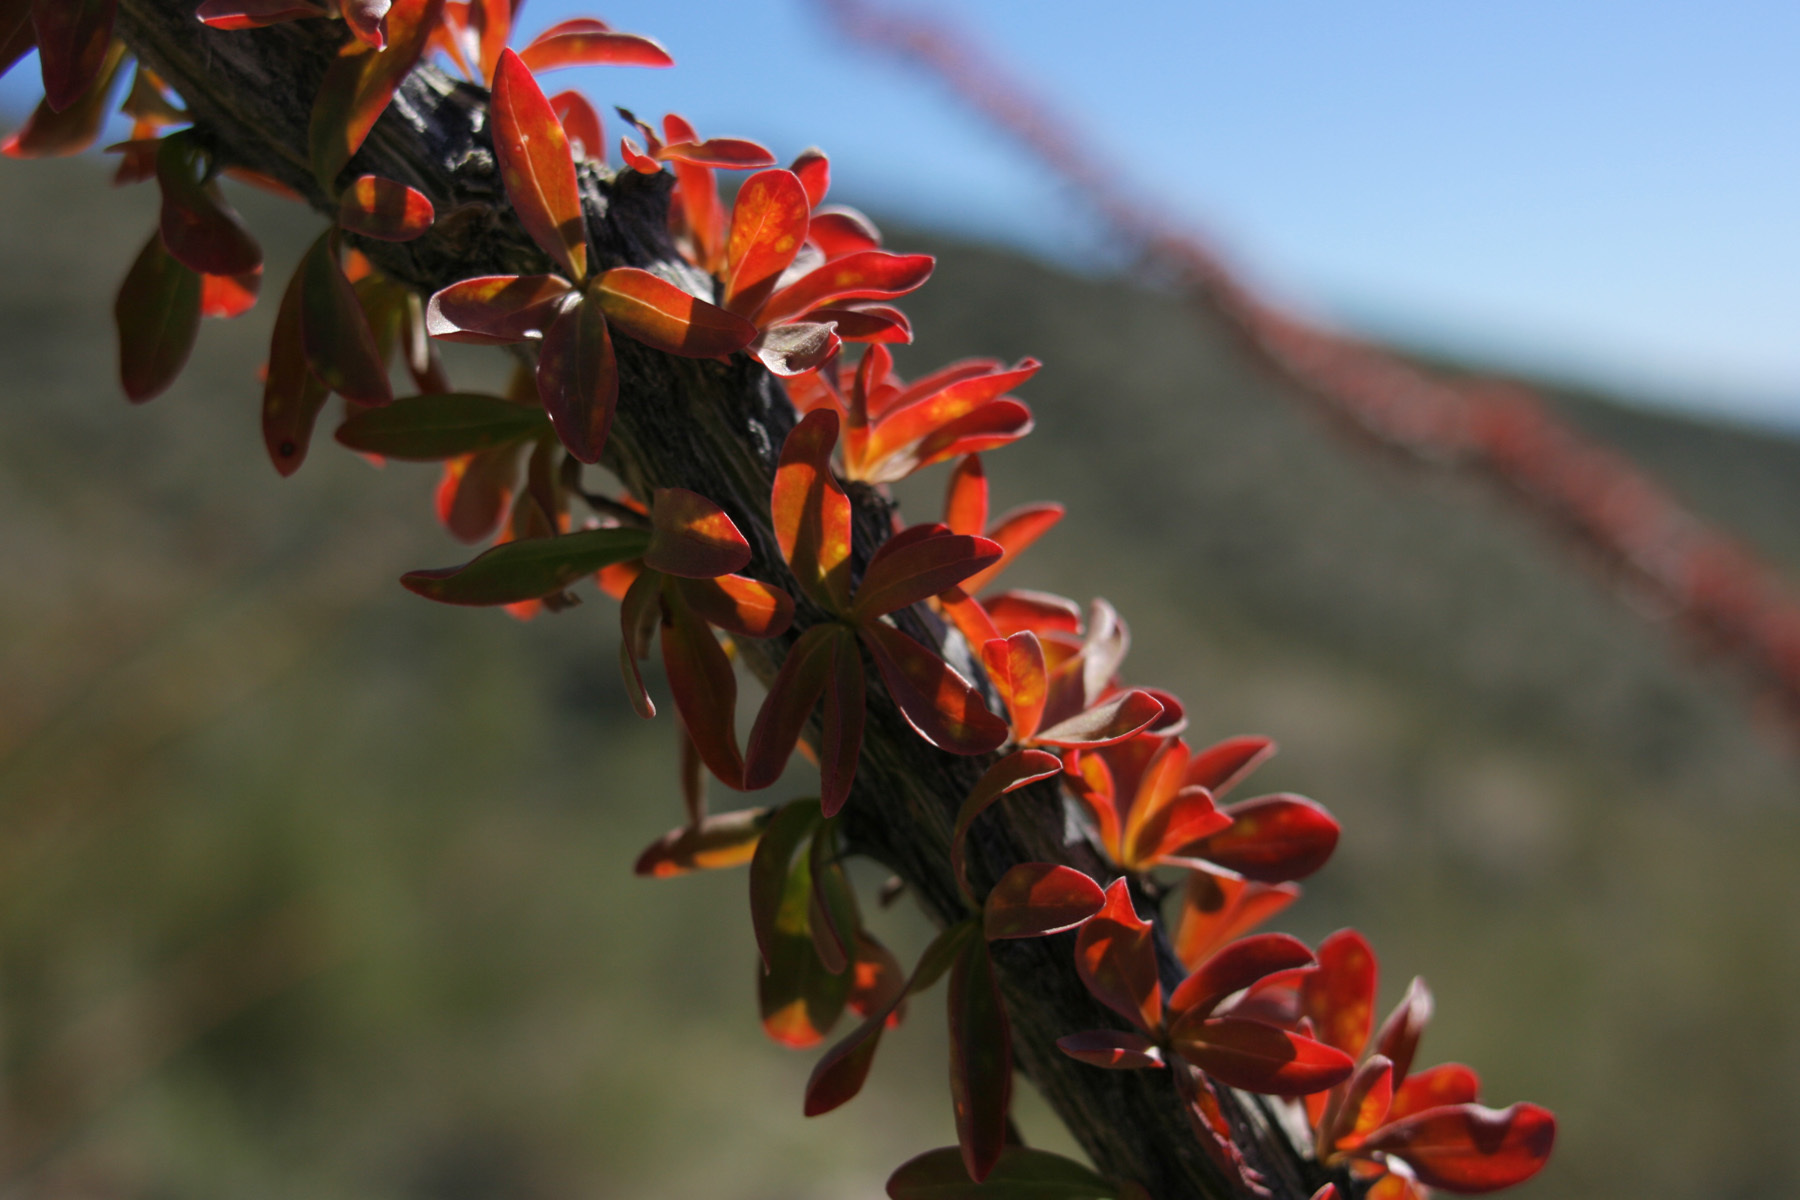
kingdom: Plantae
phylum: Tracheophyta
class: Magnoliopsida
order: Ericales
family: Fouquieriaceae
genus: Fouquieria
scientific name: Fouquieria splendens
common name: Vine-cactus
